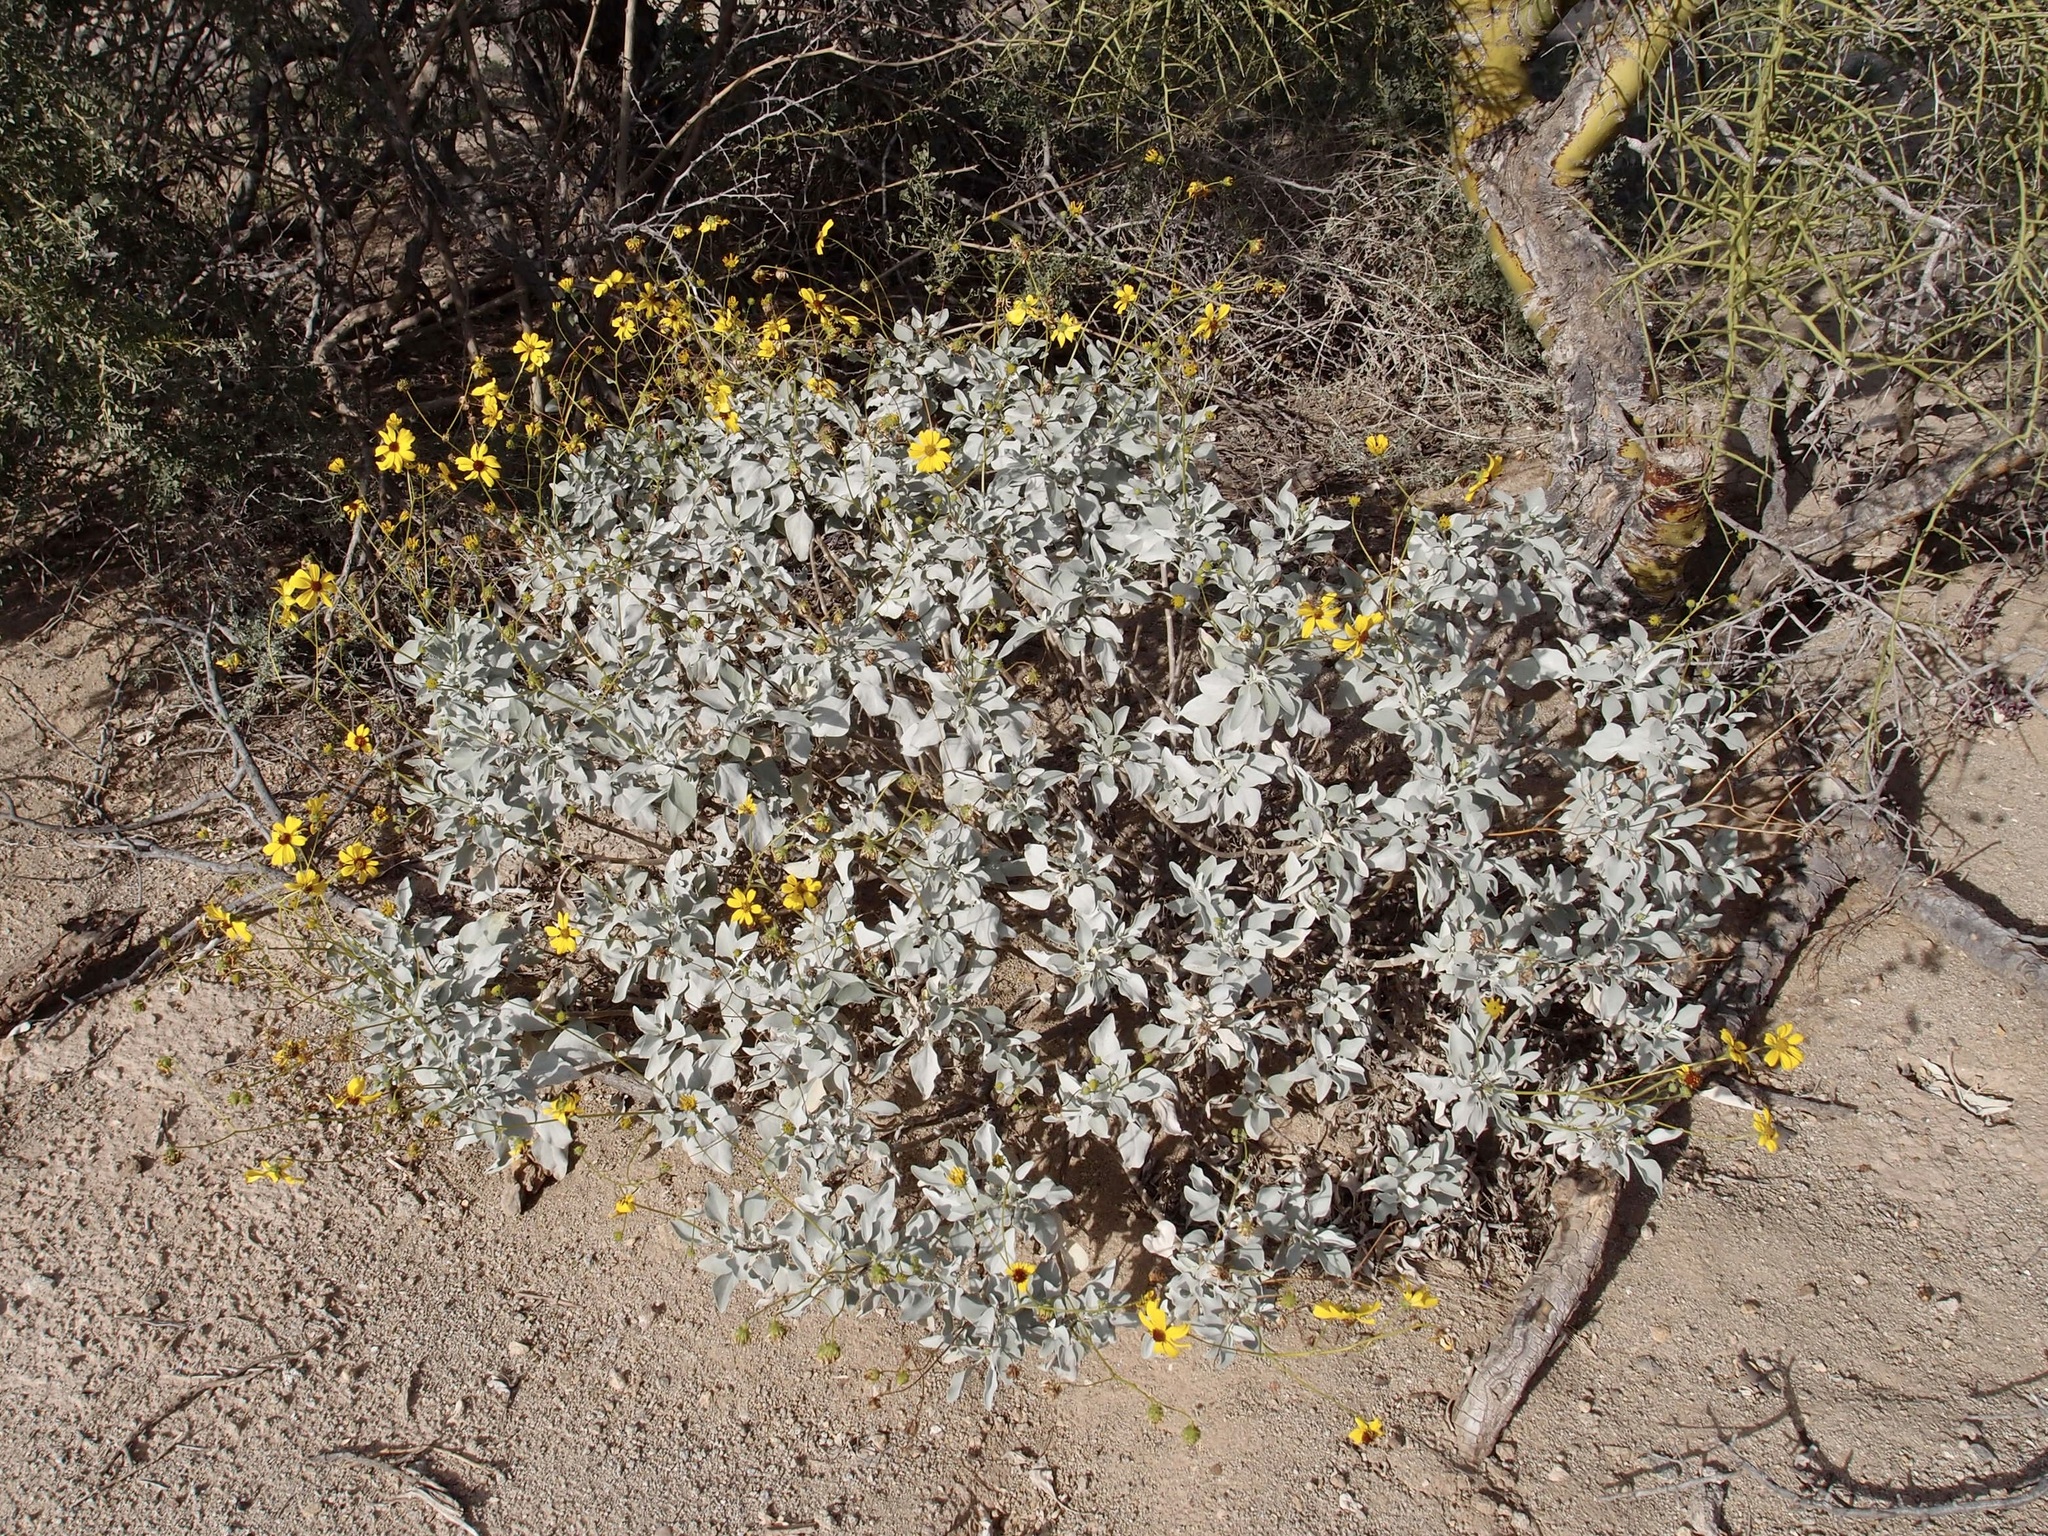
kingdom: Plantae
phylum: Tracheophyta
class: Magnoliopsida
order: Asterales
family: Asteraceae
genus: Encelia
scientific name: Encelia farinosa
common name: Brittlebush
